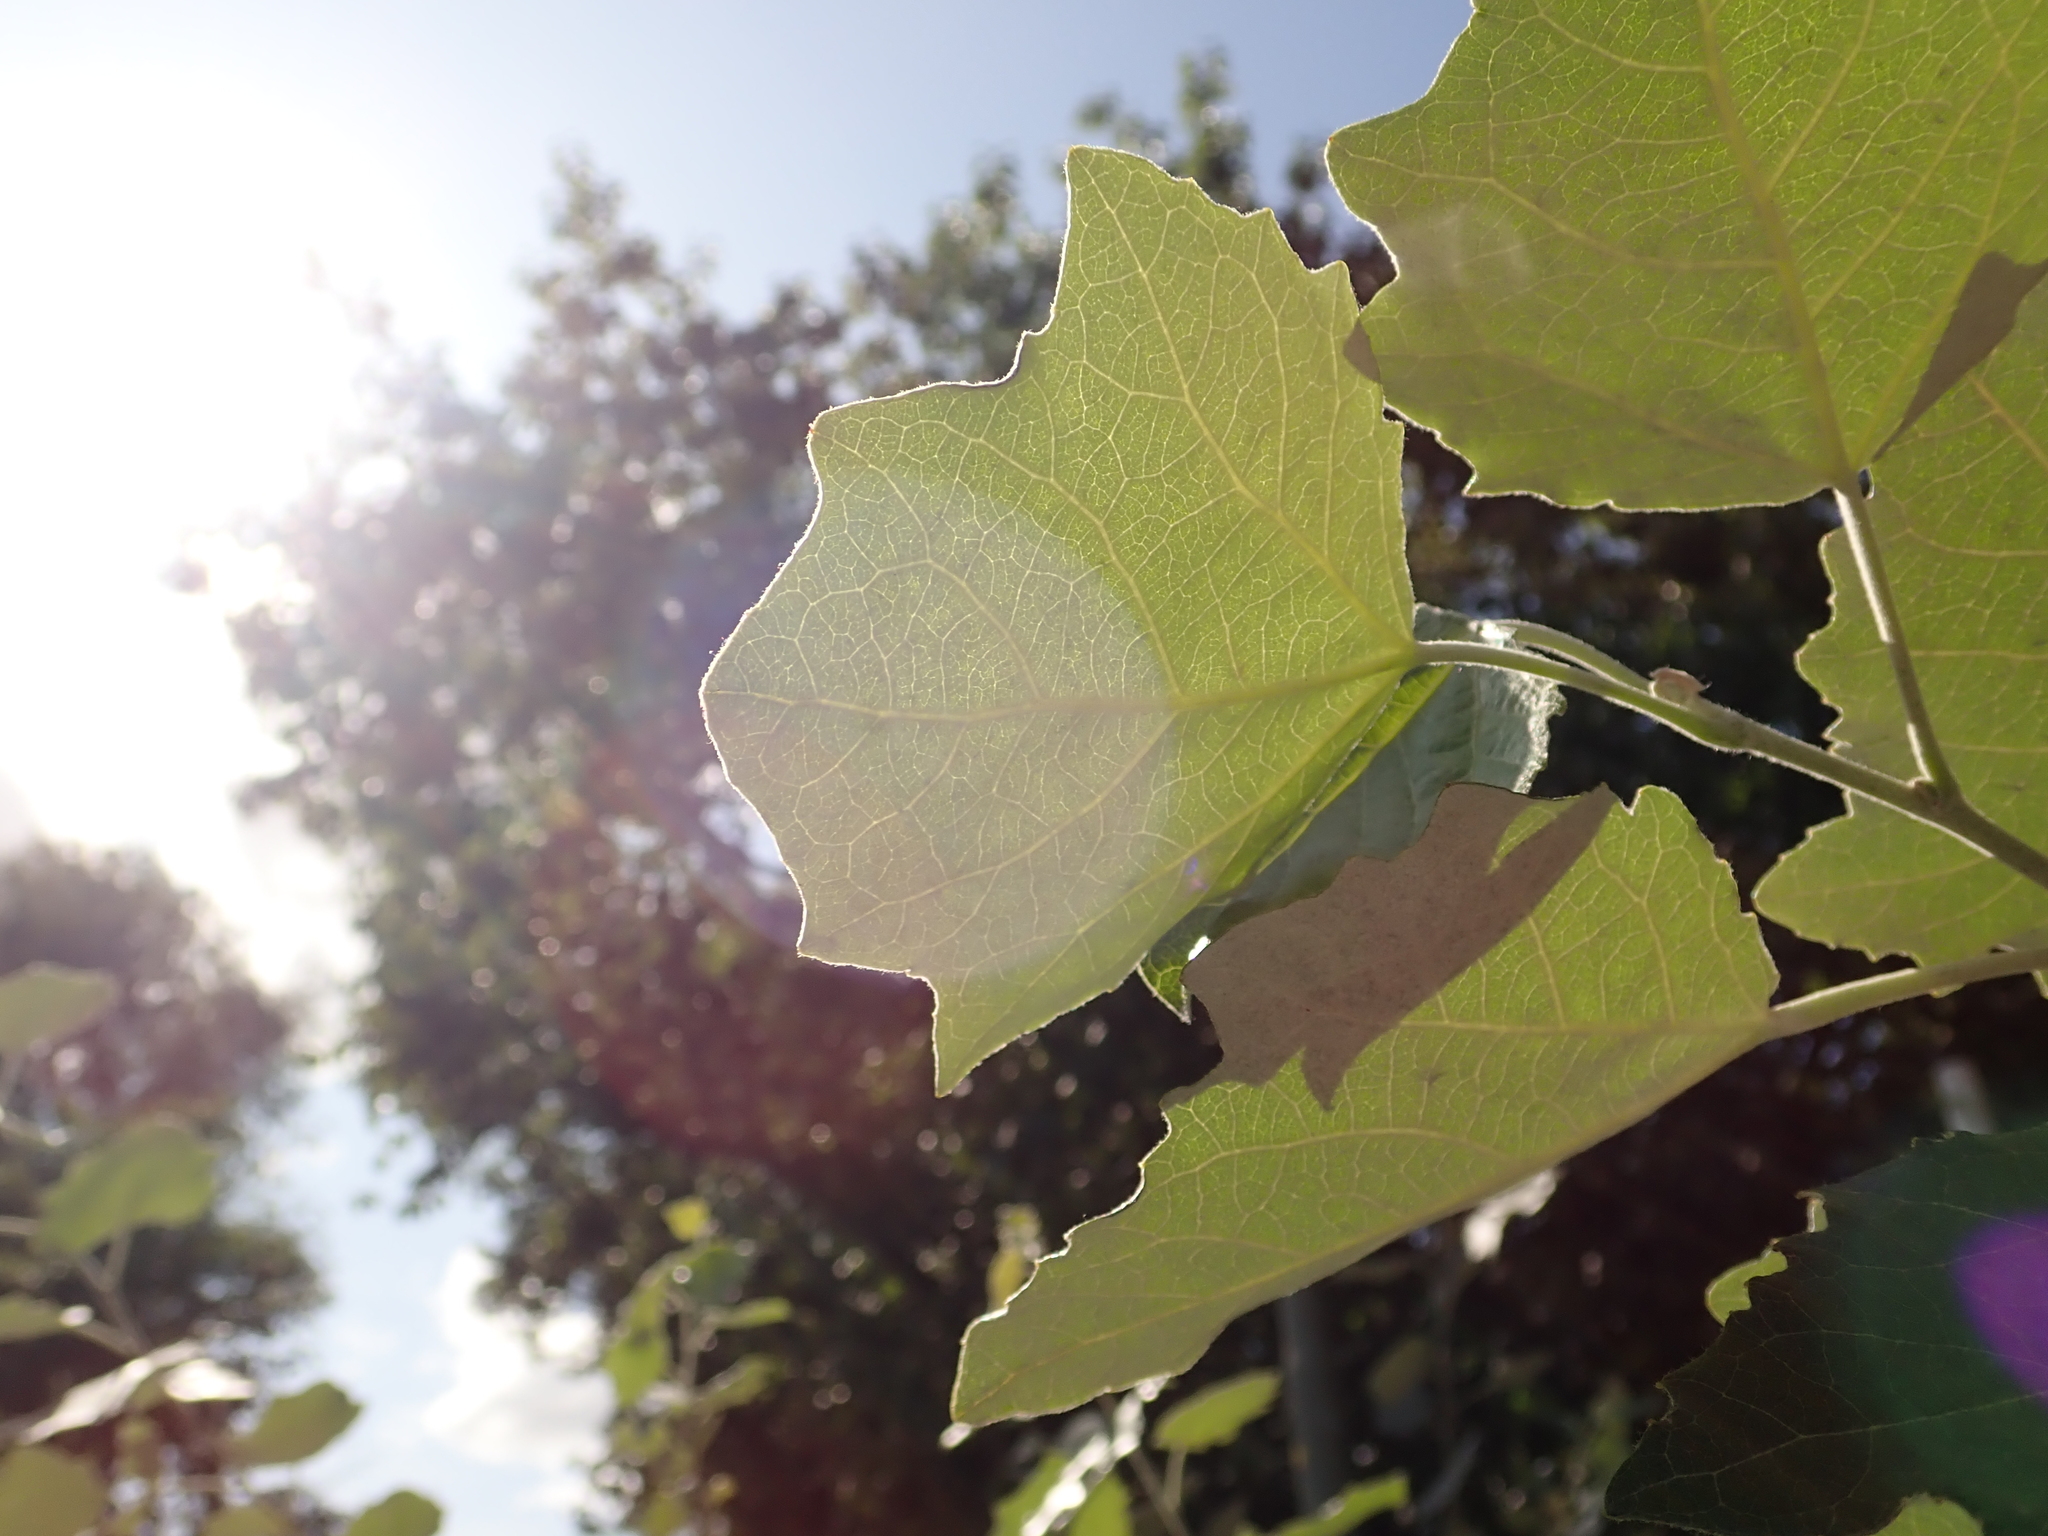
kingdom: Plantae
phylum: Tracheophyta
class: Magnoliopsida
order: Malpighiales
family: Salicaceae
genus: Populus
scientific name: Populus alba
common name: White poplar
